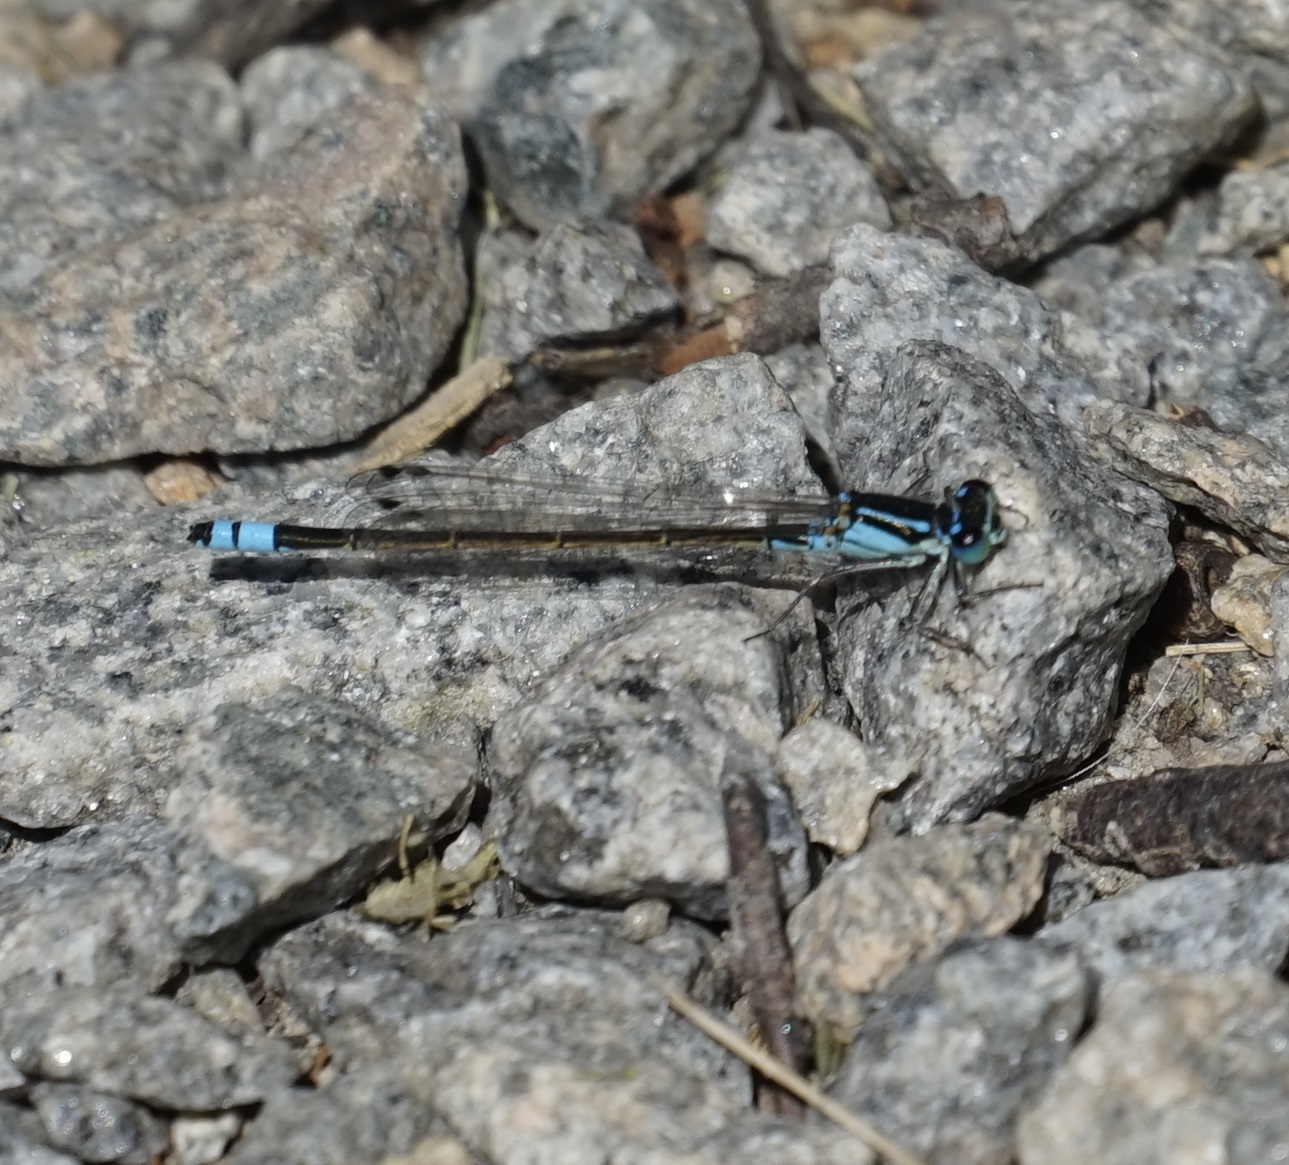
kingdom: Animalia
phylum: Arthropoda
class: Insecta
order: Odonata
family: Coenagrionidae
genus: Ischnura
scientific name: Ischnura heterosticta
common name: Common bluetail
